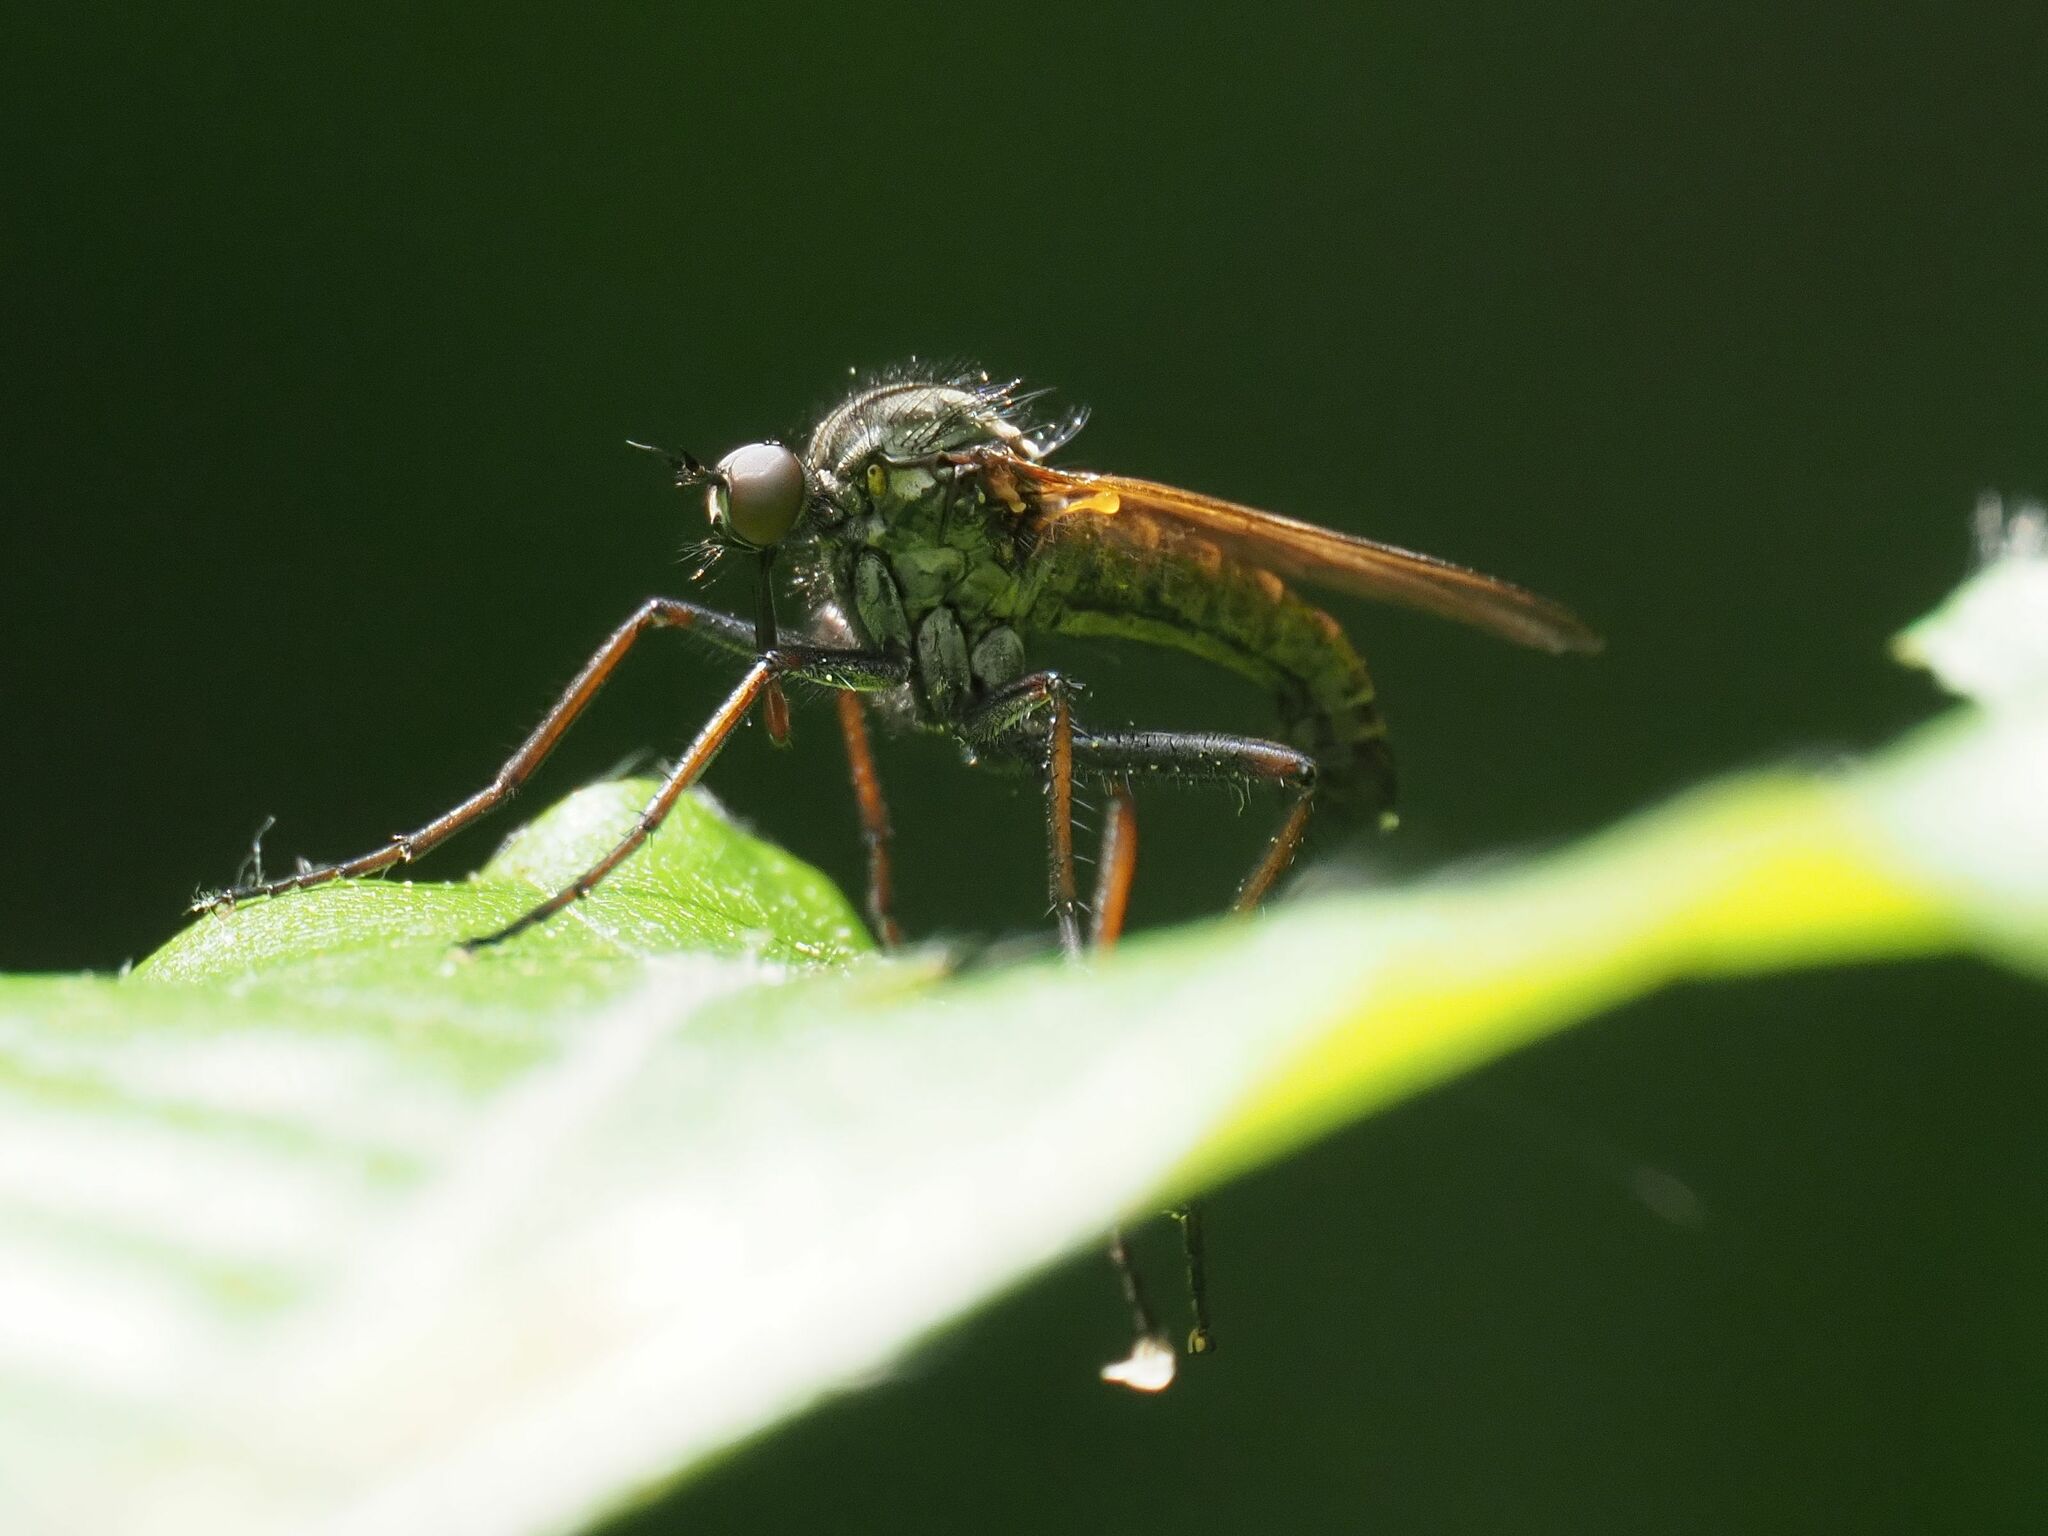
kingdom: Animalia
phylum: Arthropoda
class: Insecta
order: Diptera
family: Empididae
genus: Empis
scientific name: Empis tessellata
